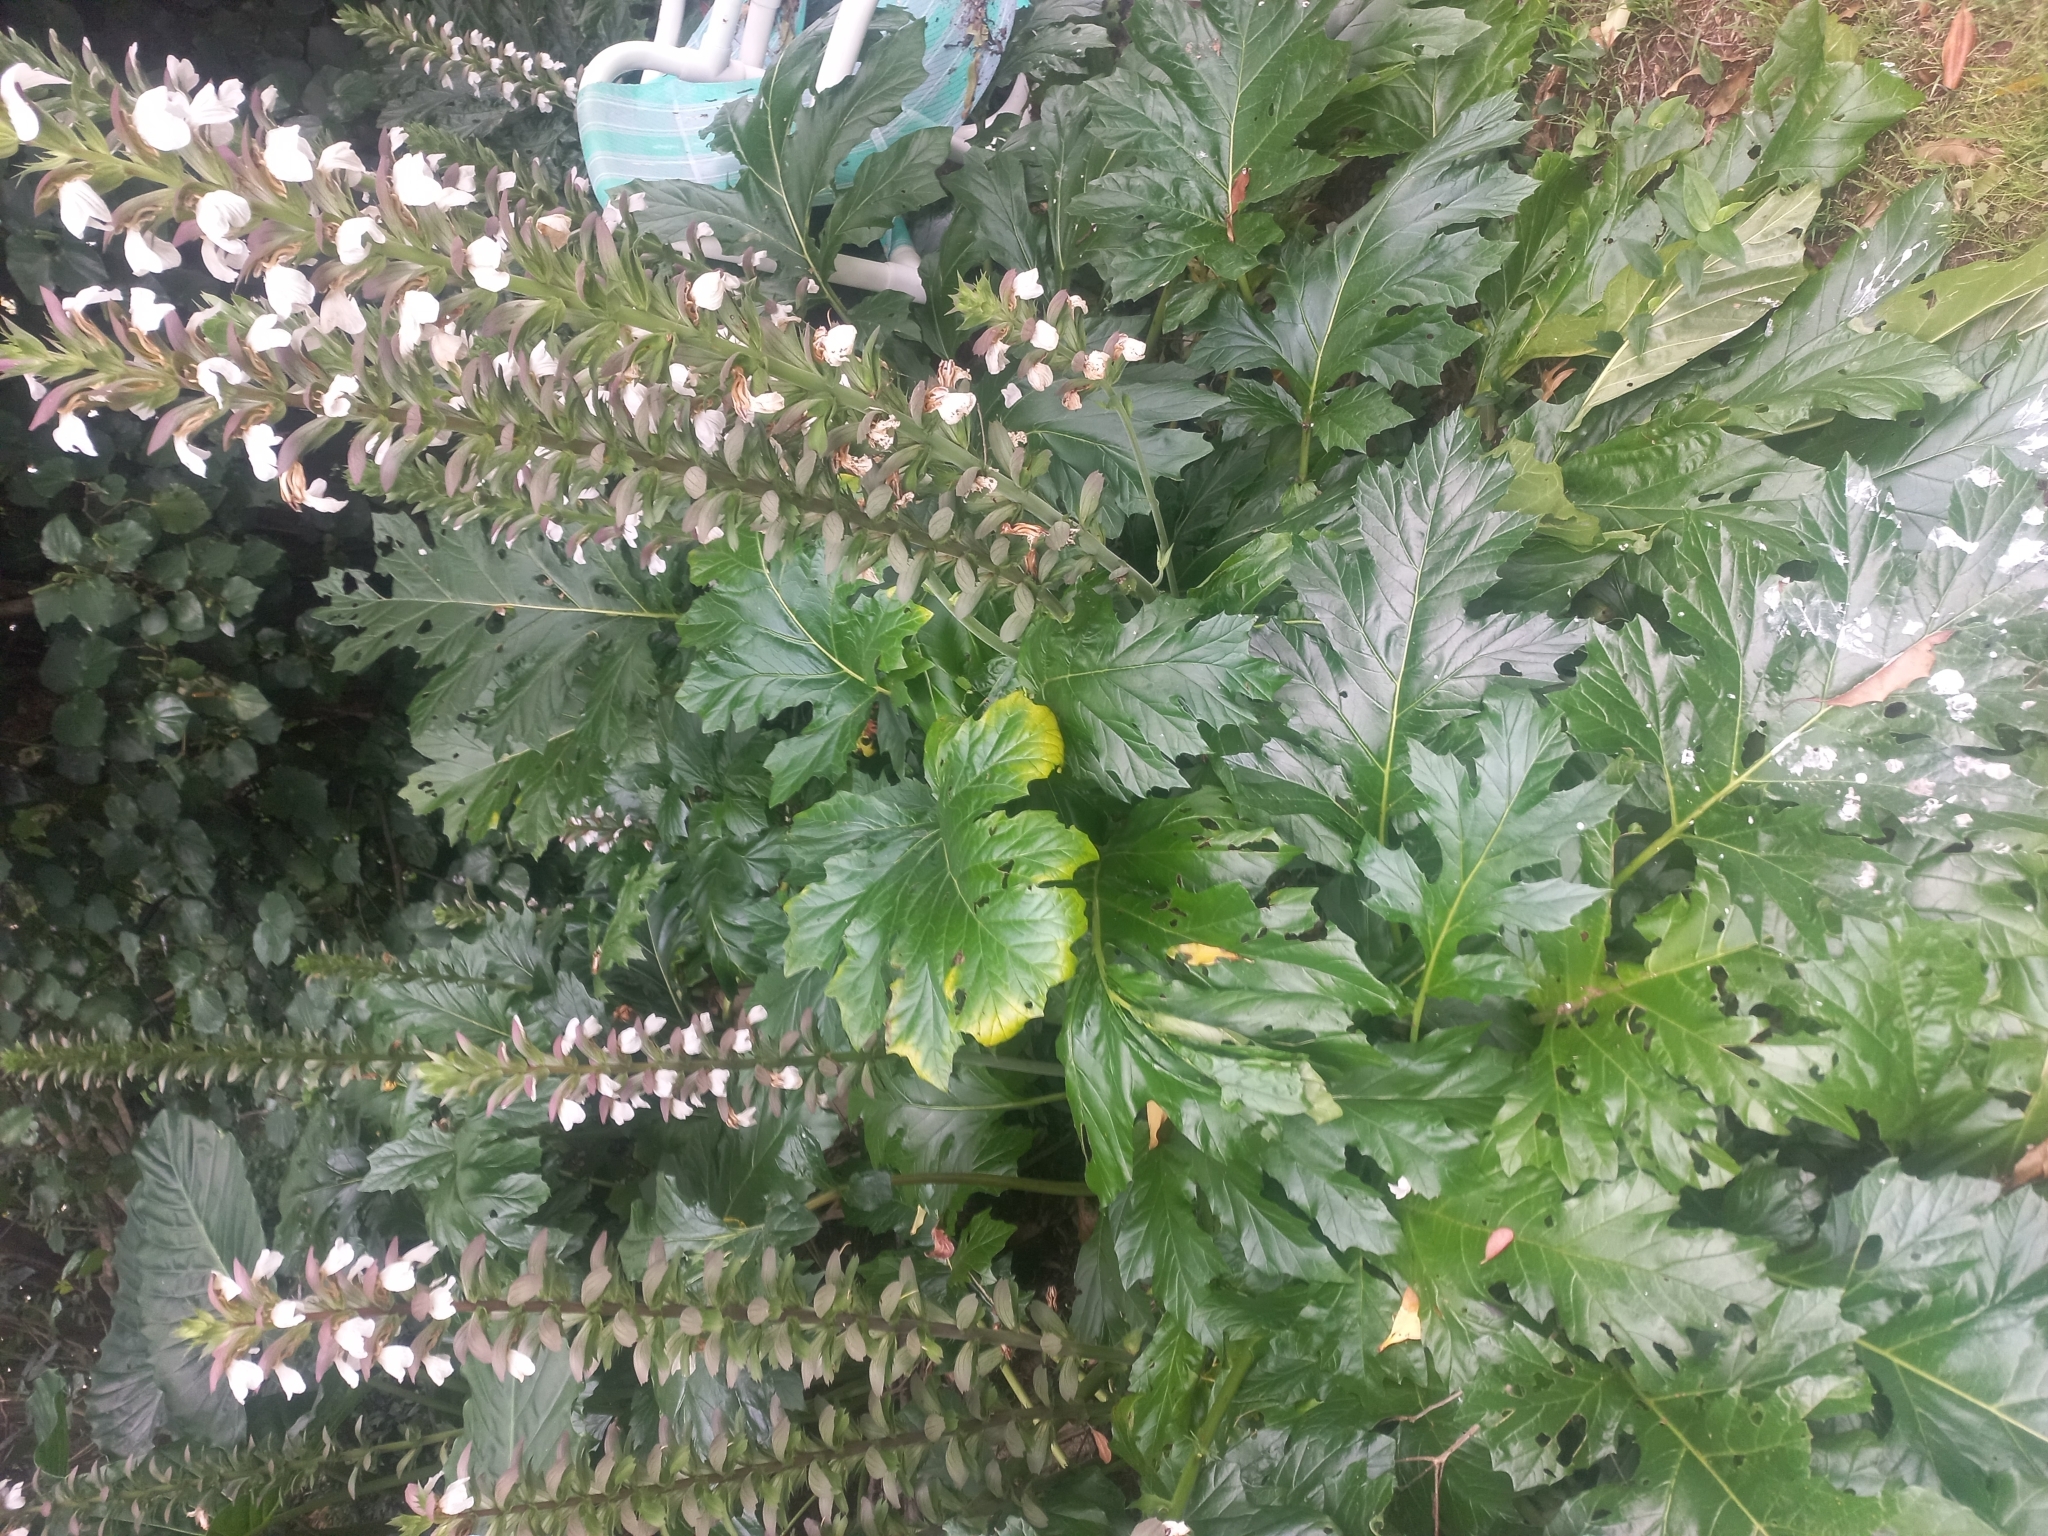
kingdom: Plantae
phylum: Tracheophyta
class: Magnoliopsida
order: Lamiales
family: Acanthaceae
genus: Acanthus
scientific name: Acanthus mollis
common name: Bear's-breech
